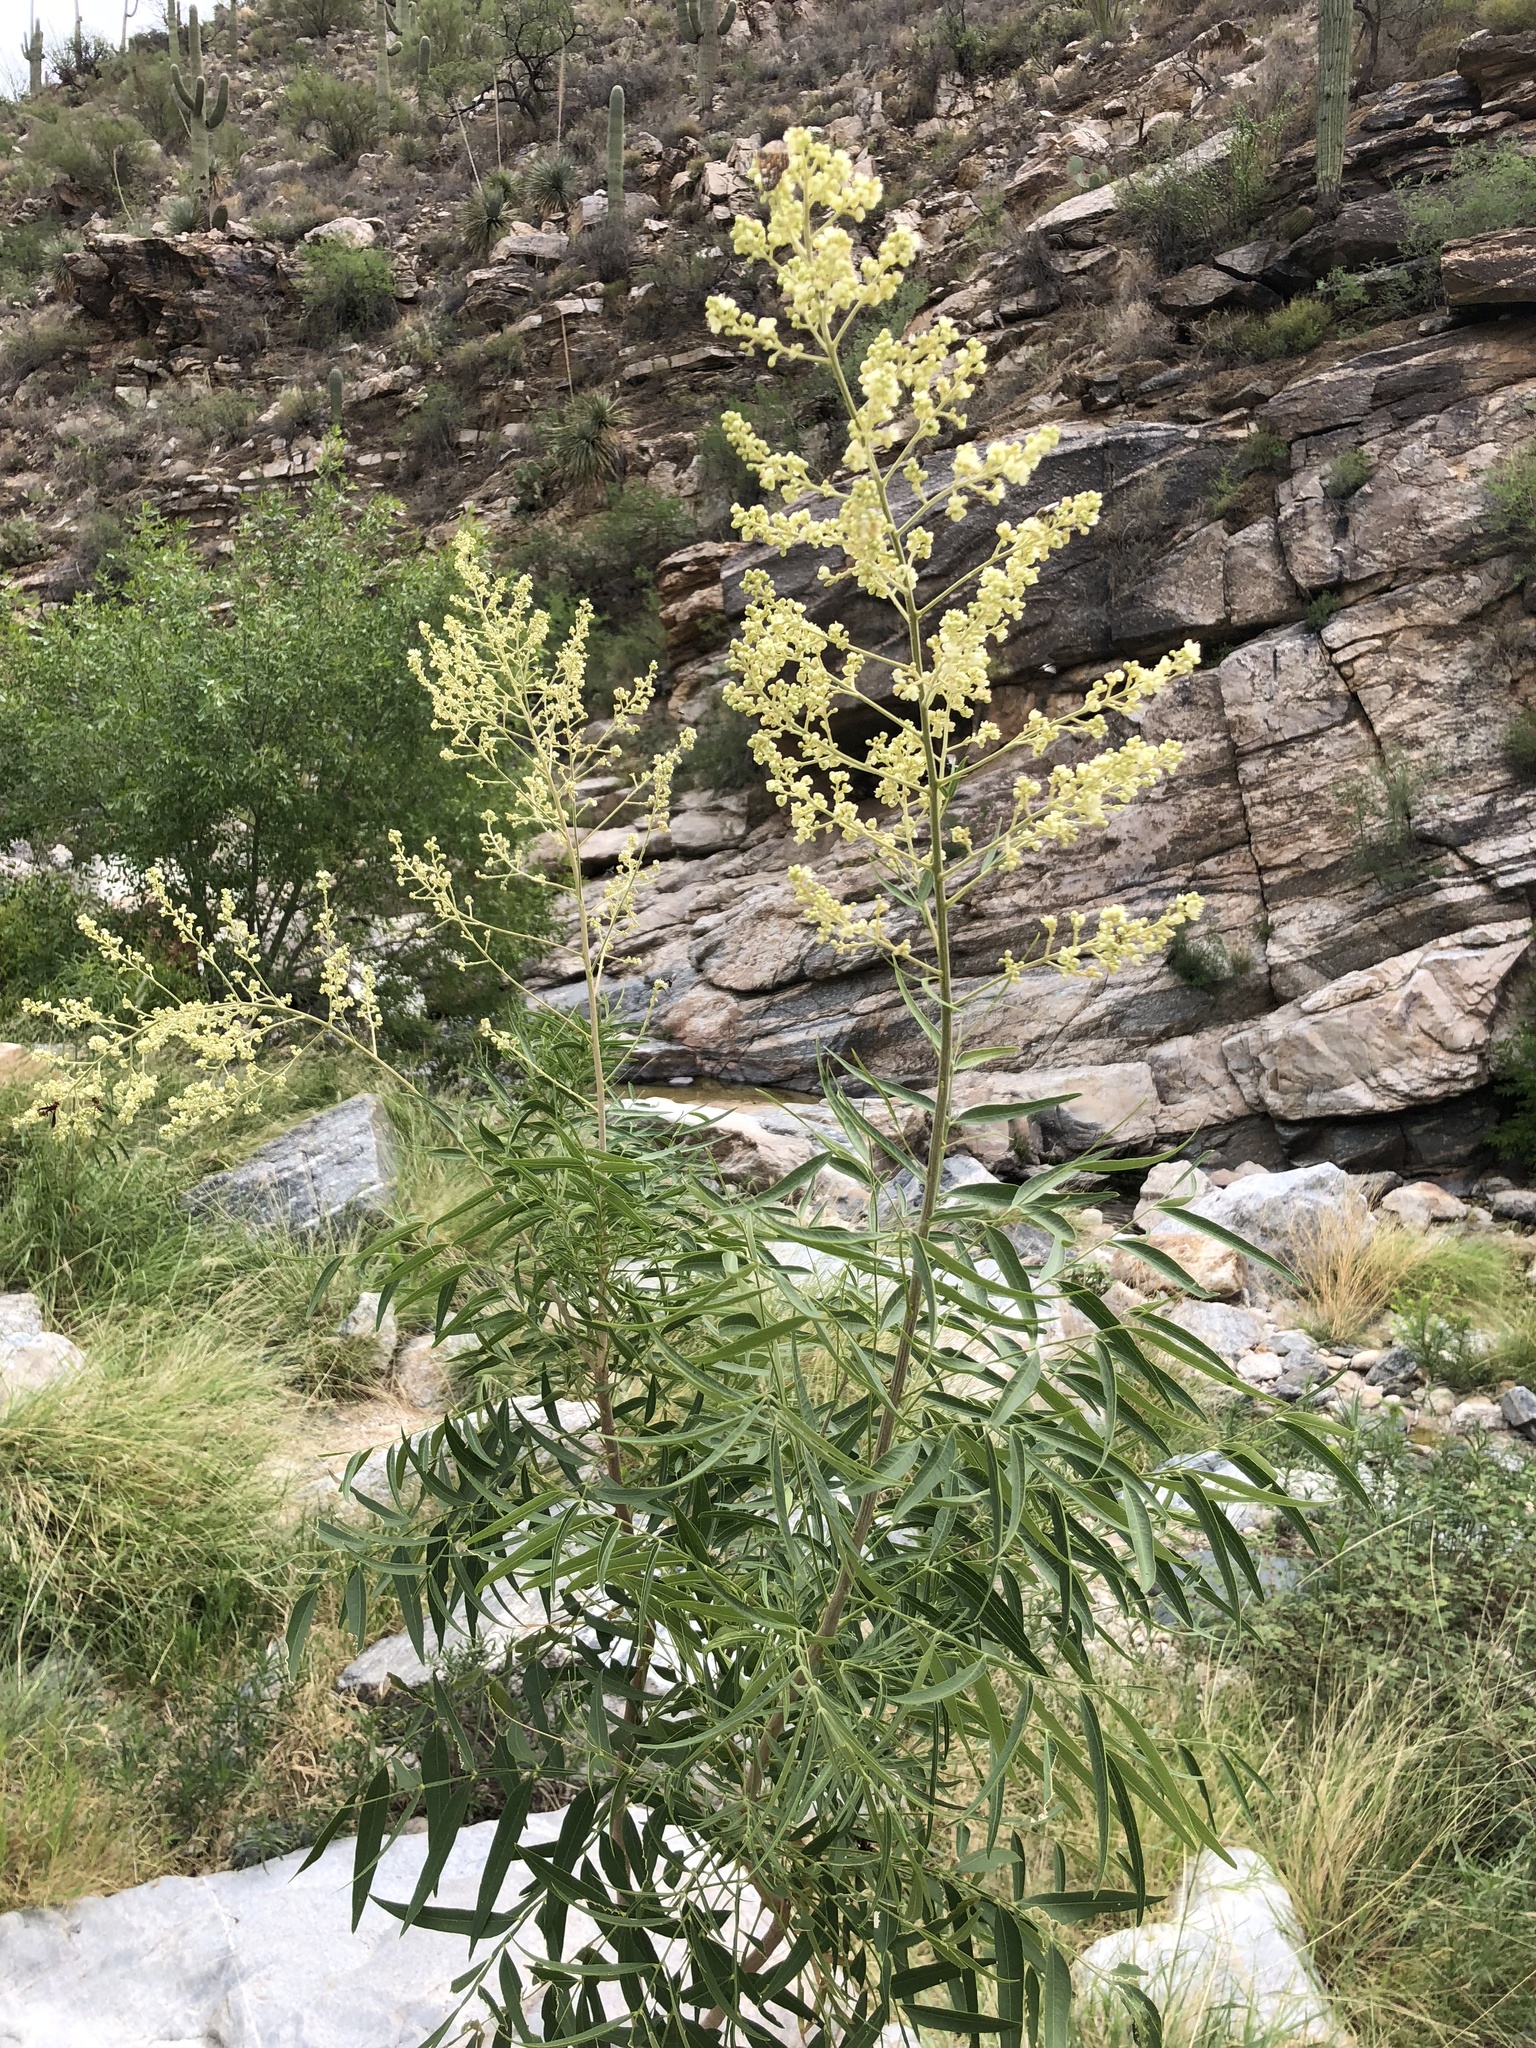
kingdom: Plantae
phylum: Tracheophyta
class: Magnoliopsida
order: Sapindales
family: Sapindaceae
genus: Sapindus
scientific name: Sapindus drummondii
